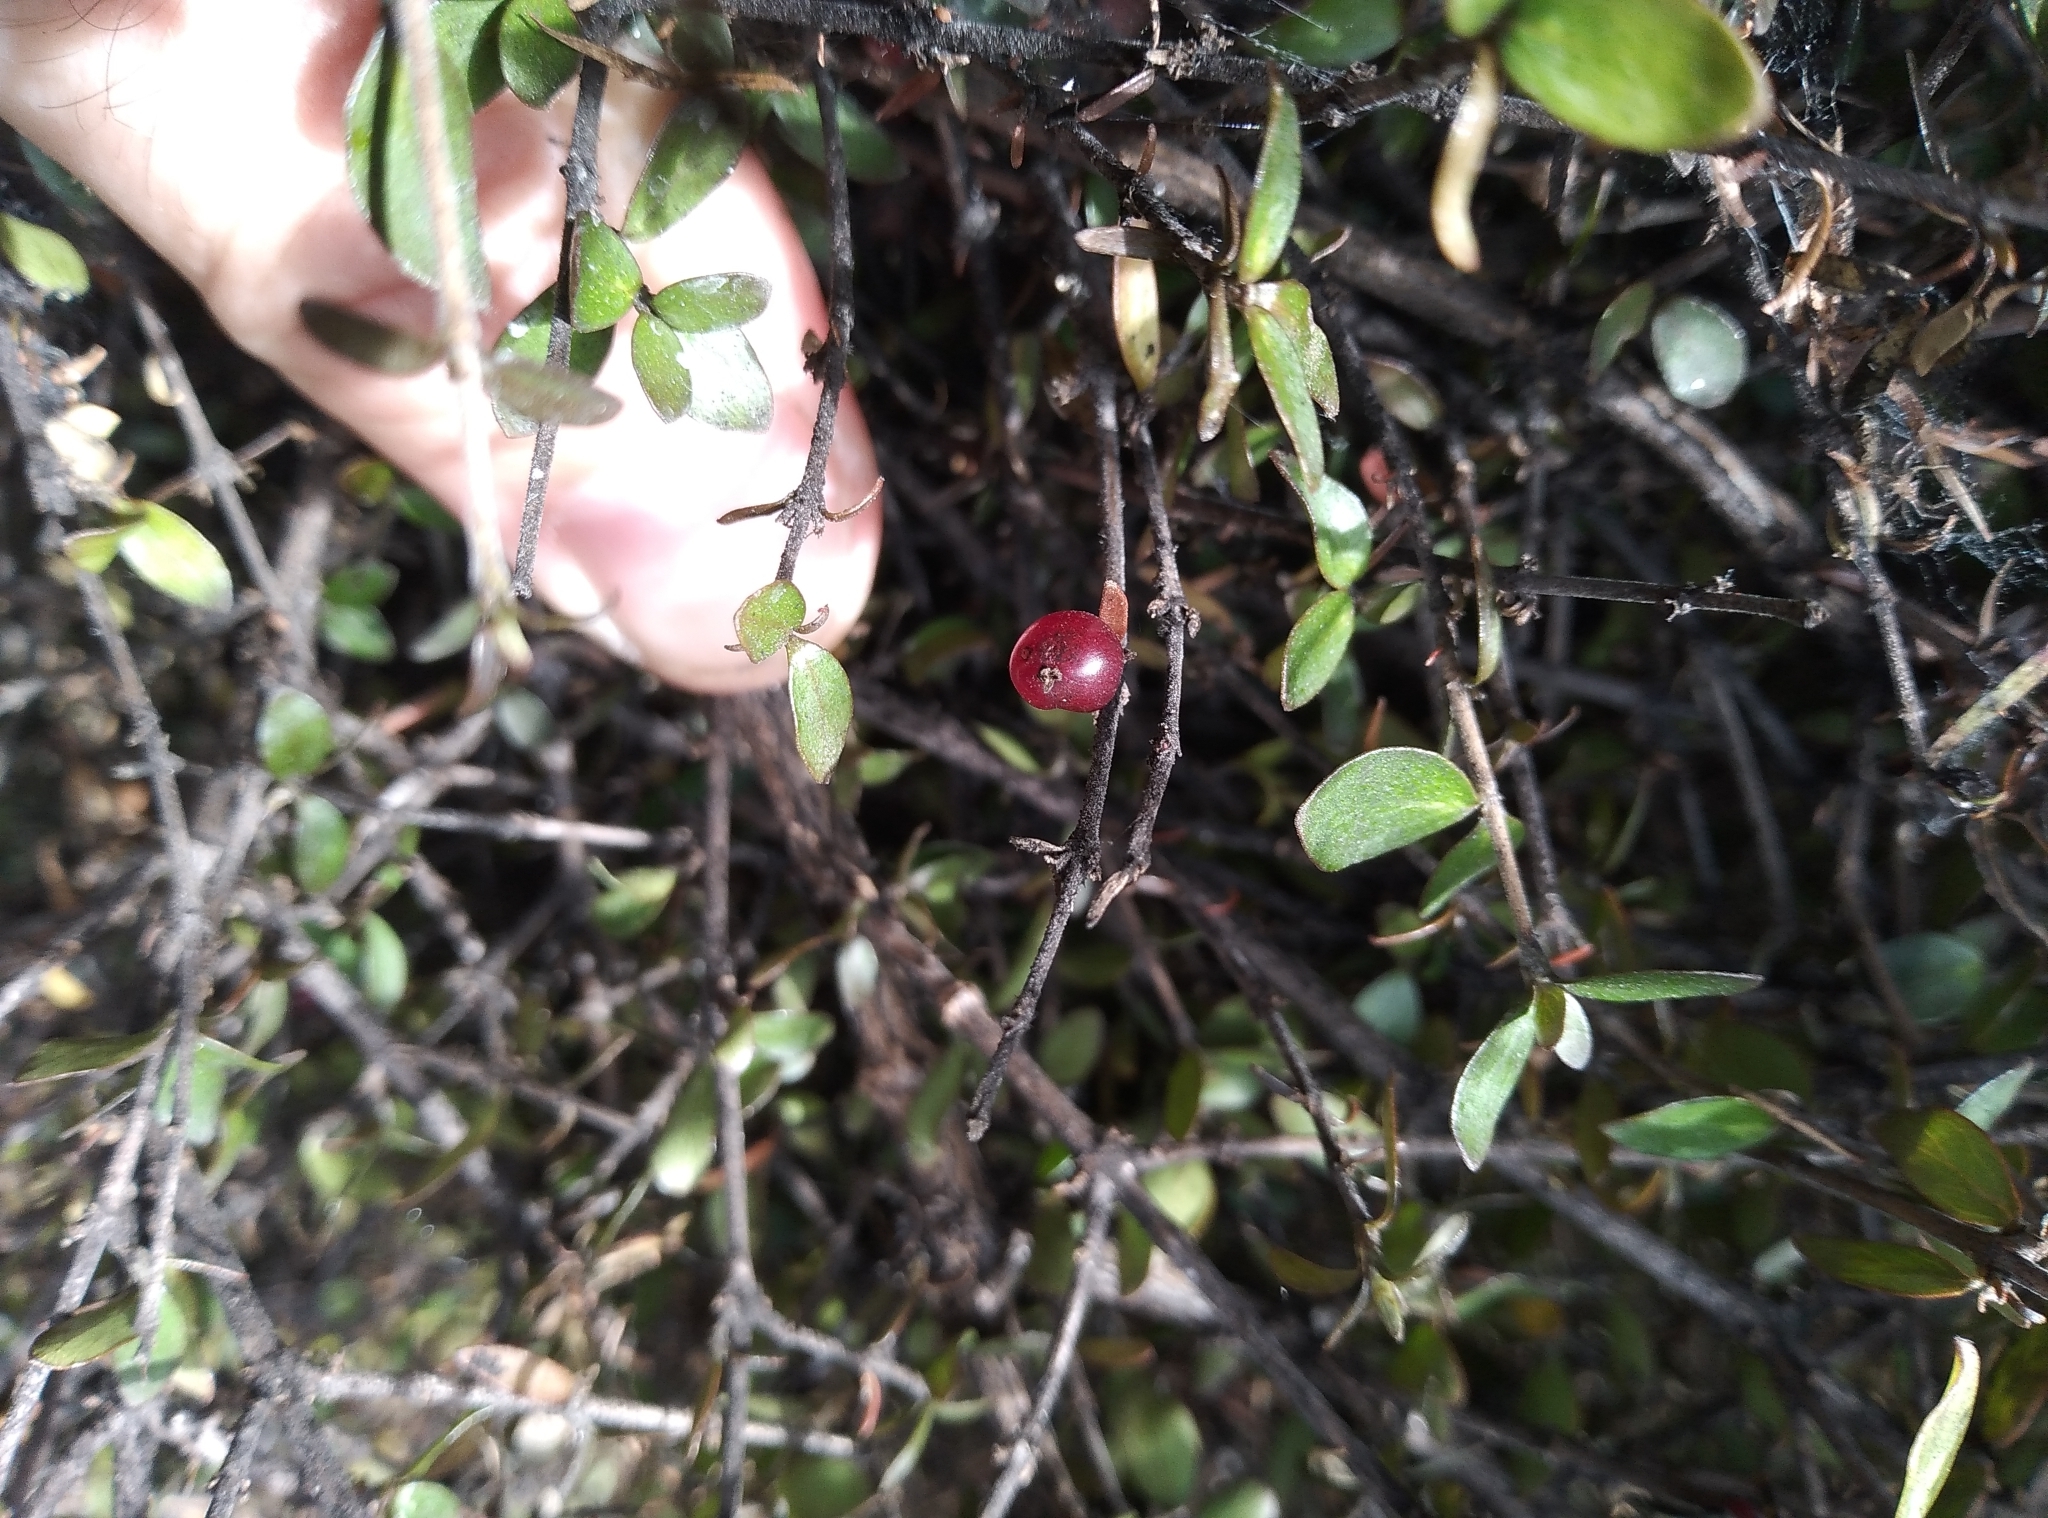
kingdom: Plantae
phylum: Tracheophyta
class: Magnoliopsida
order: Gentianales
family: Rubiaceae
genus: Coprosma
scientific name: Coprosma rhamnoides
